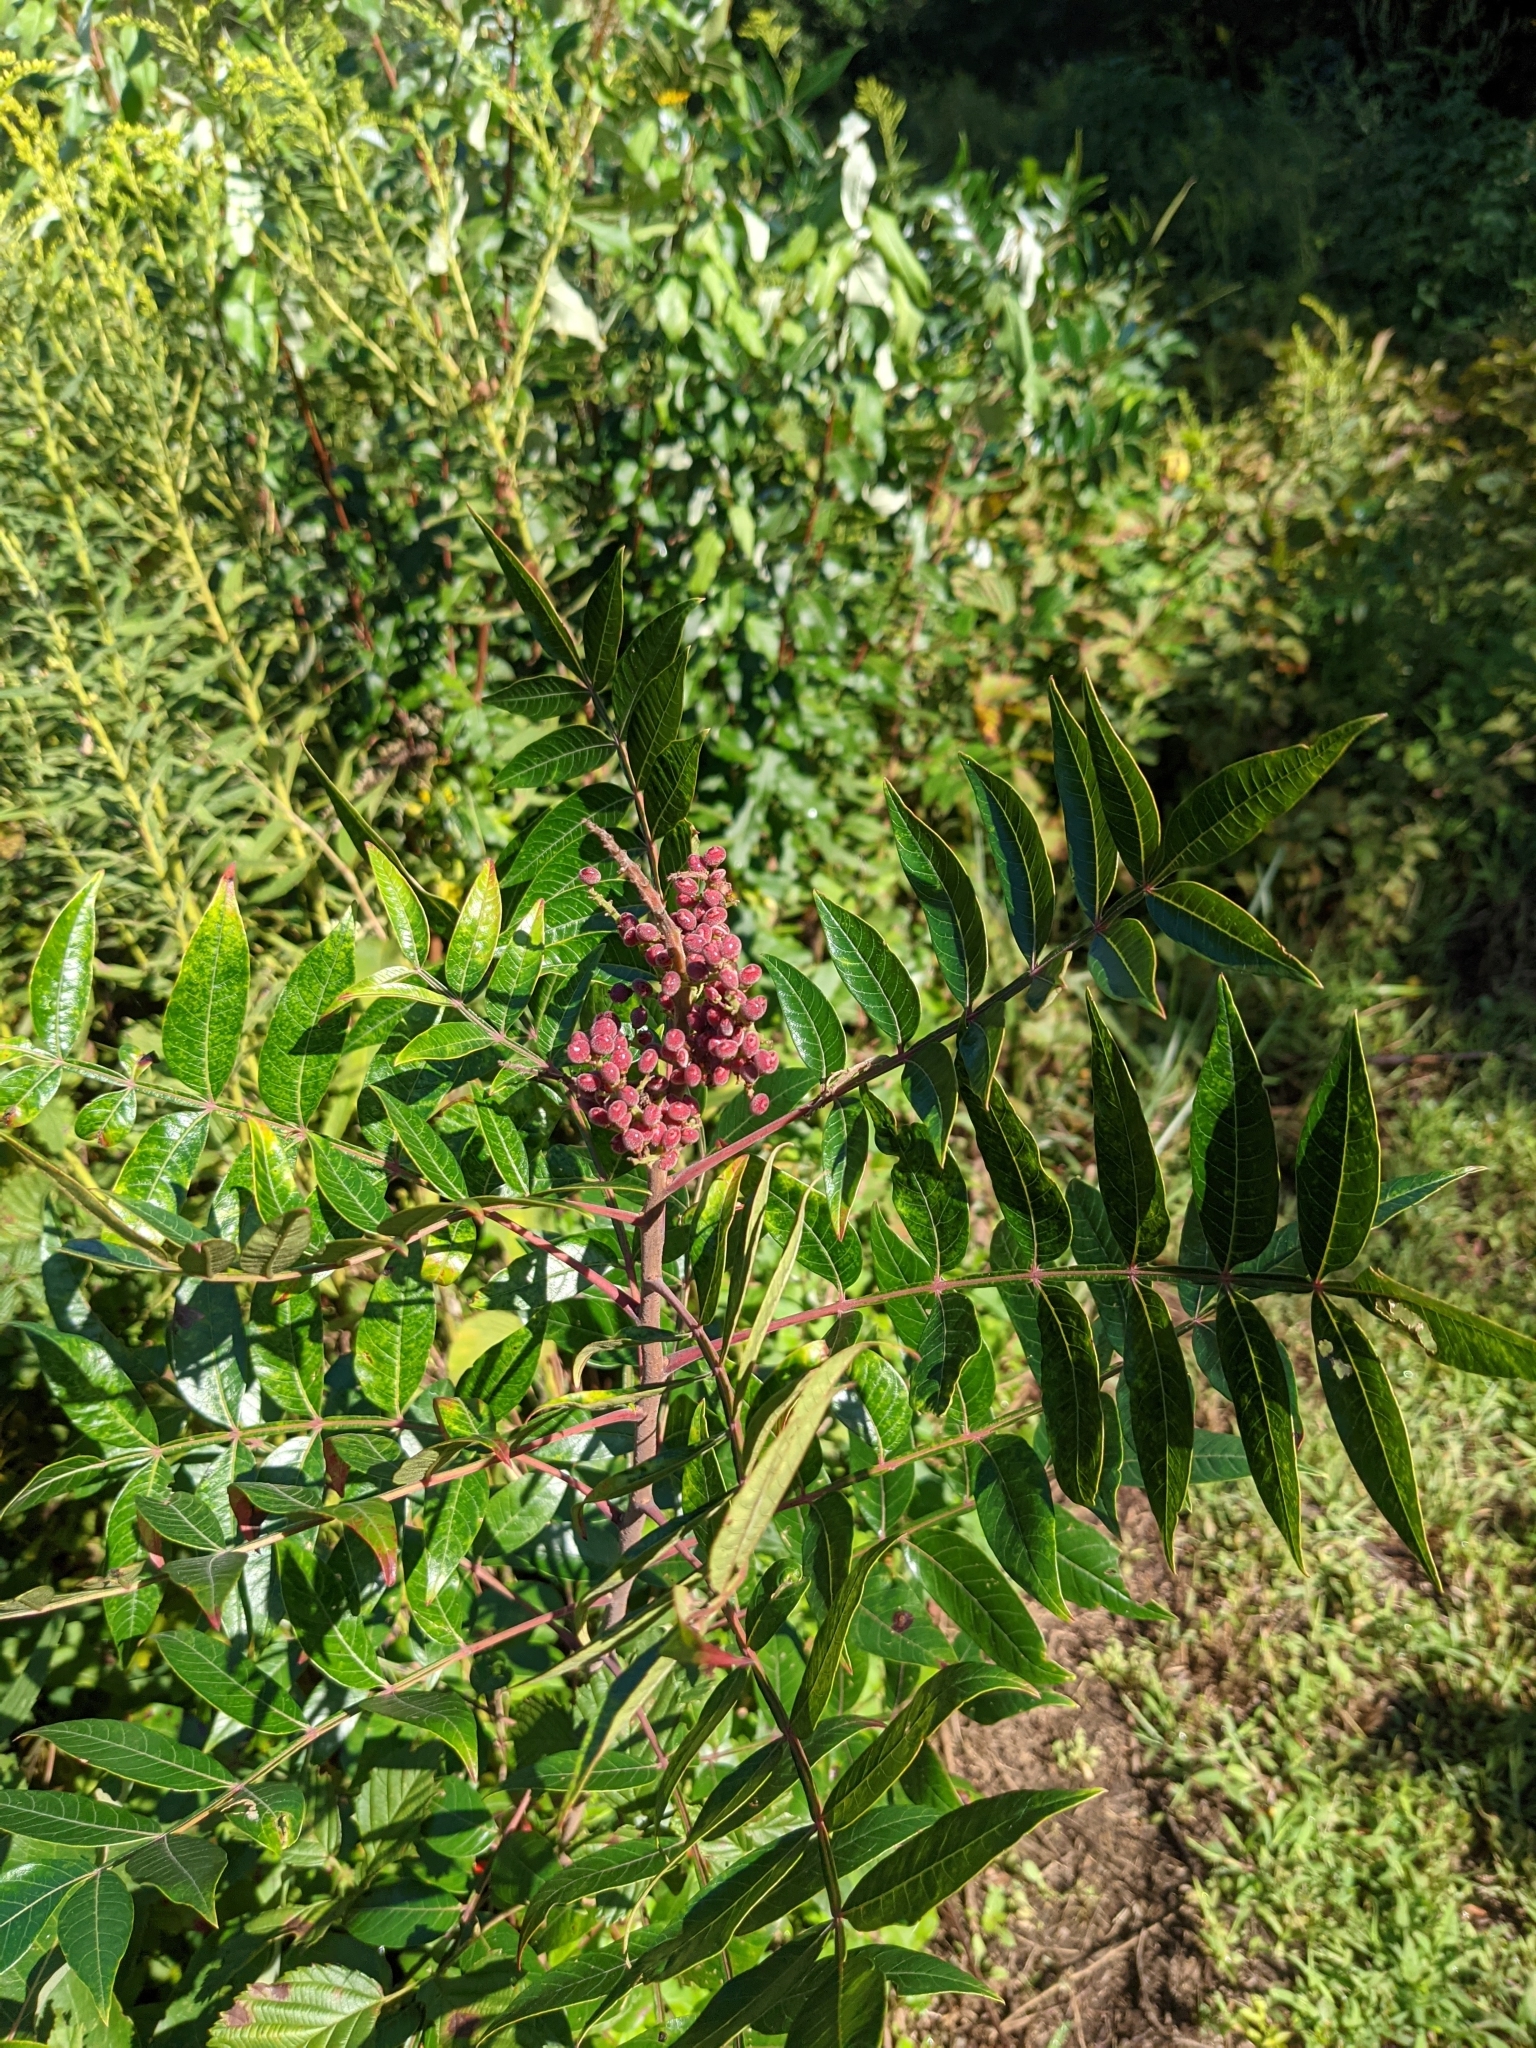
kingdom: Plantae
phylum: Tracheophyta
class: Magnoliopsida
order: Sapindales
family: Anacardiaceae
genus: Rhus
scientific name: Rhus copallina
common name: Shining sumac
